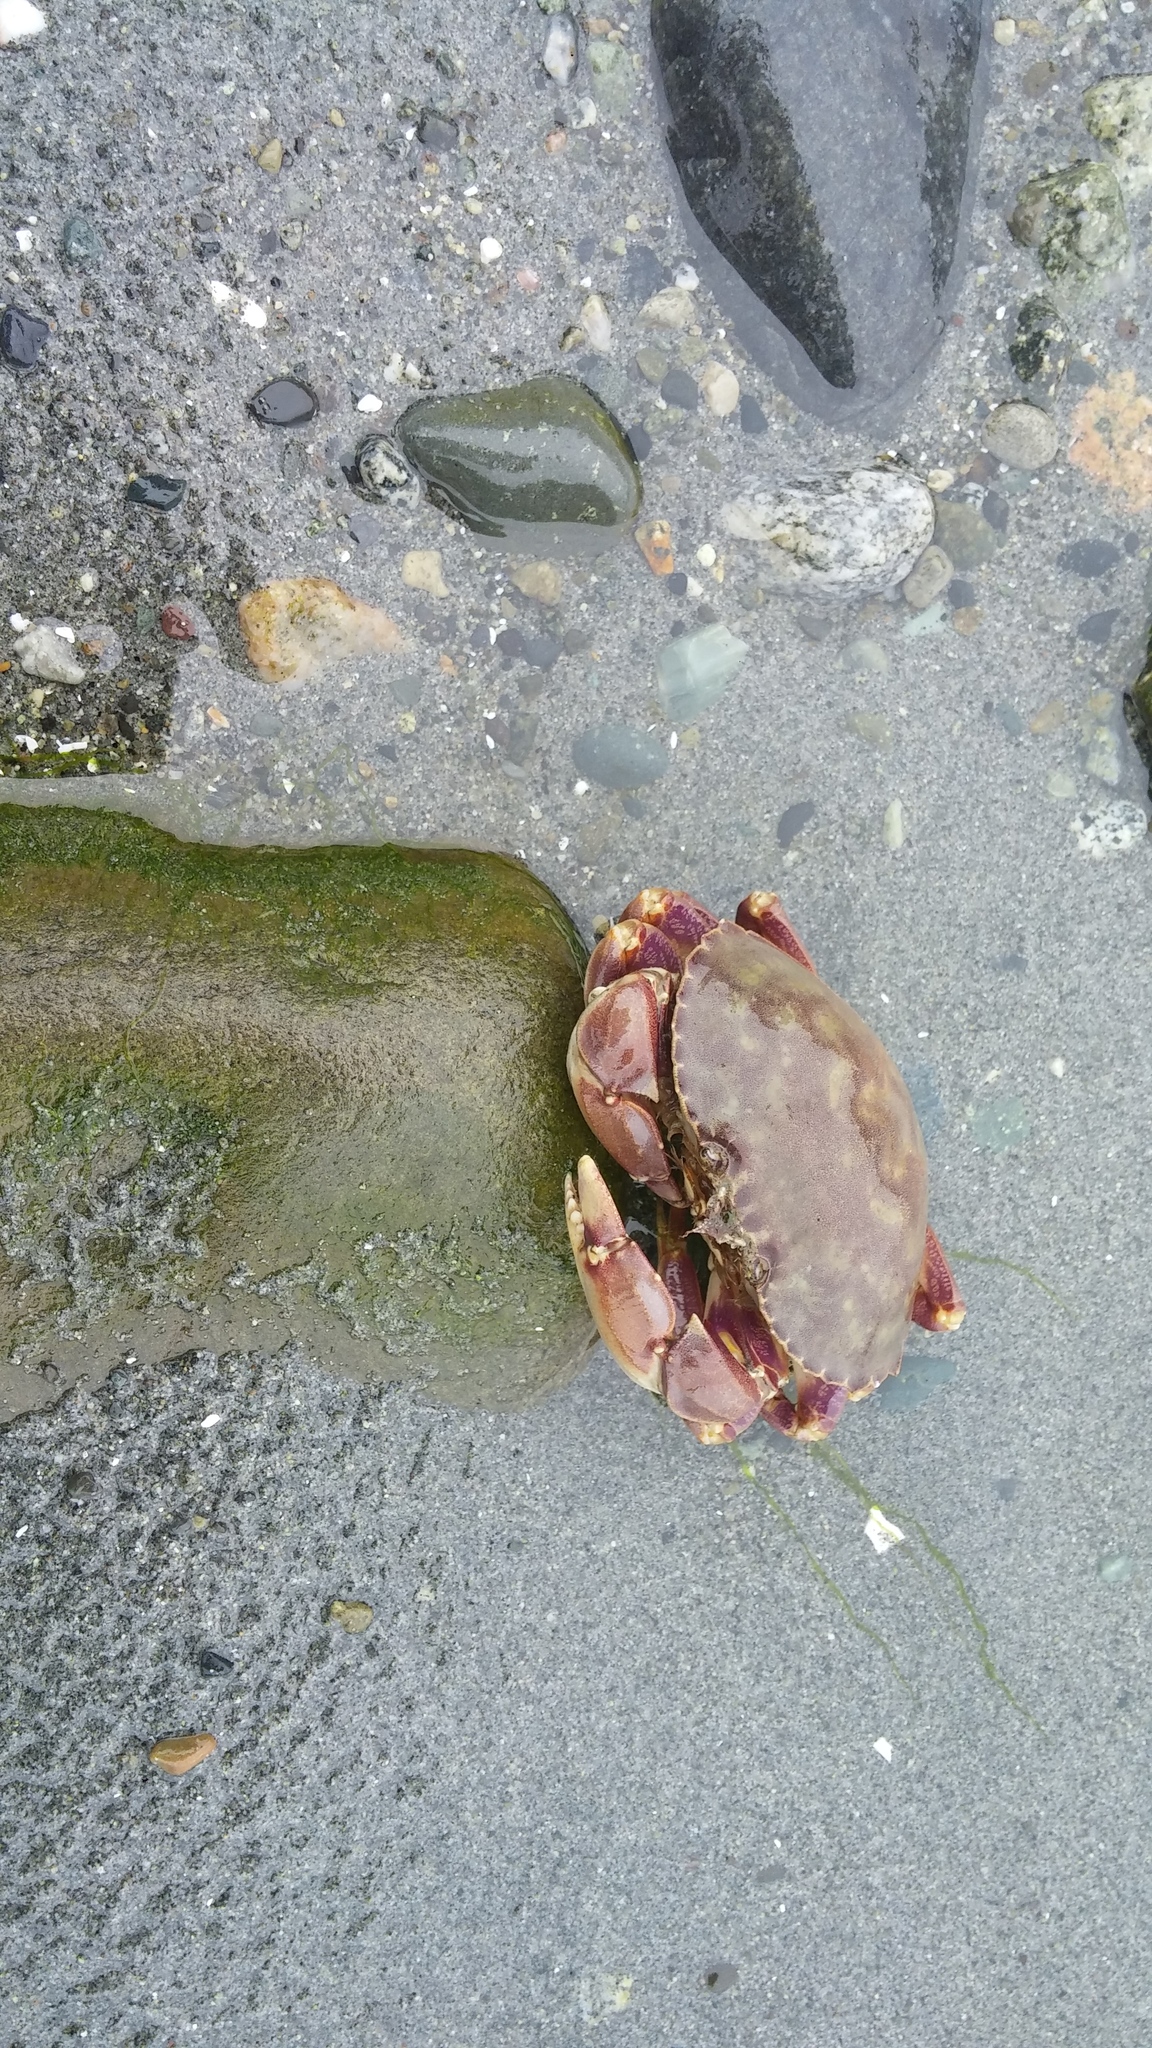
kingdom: Animalia
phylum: Arthropoda
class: Malacostraca
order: Decapoda
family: Cancridae
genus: Metacarcinus
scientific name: Metacarcinus gracilis
